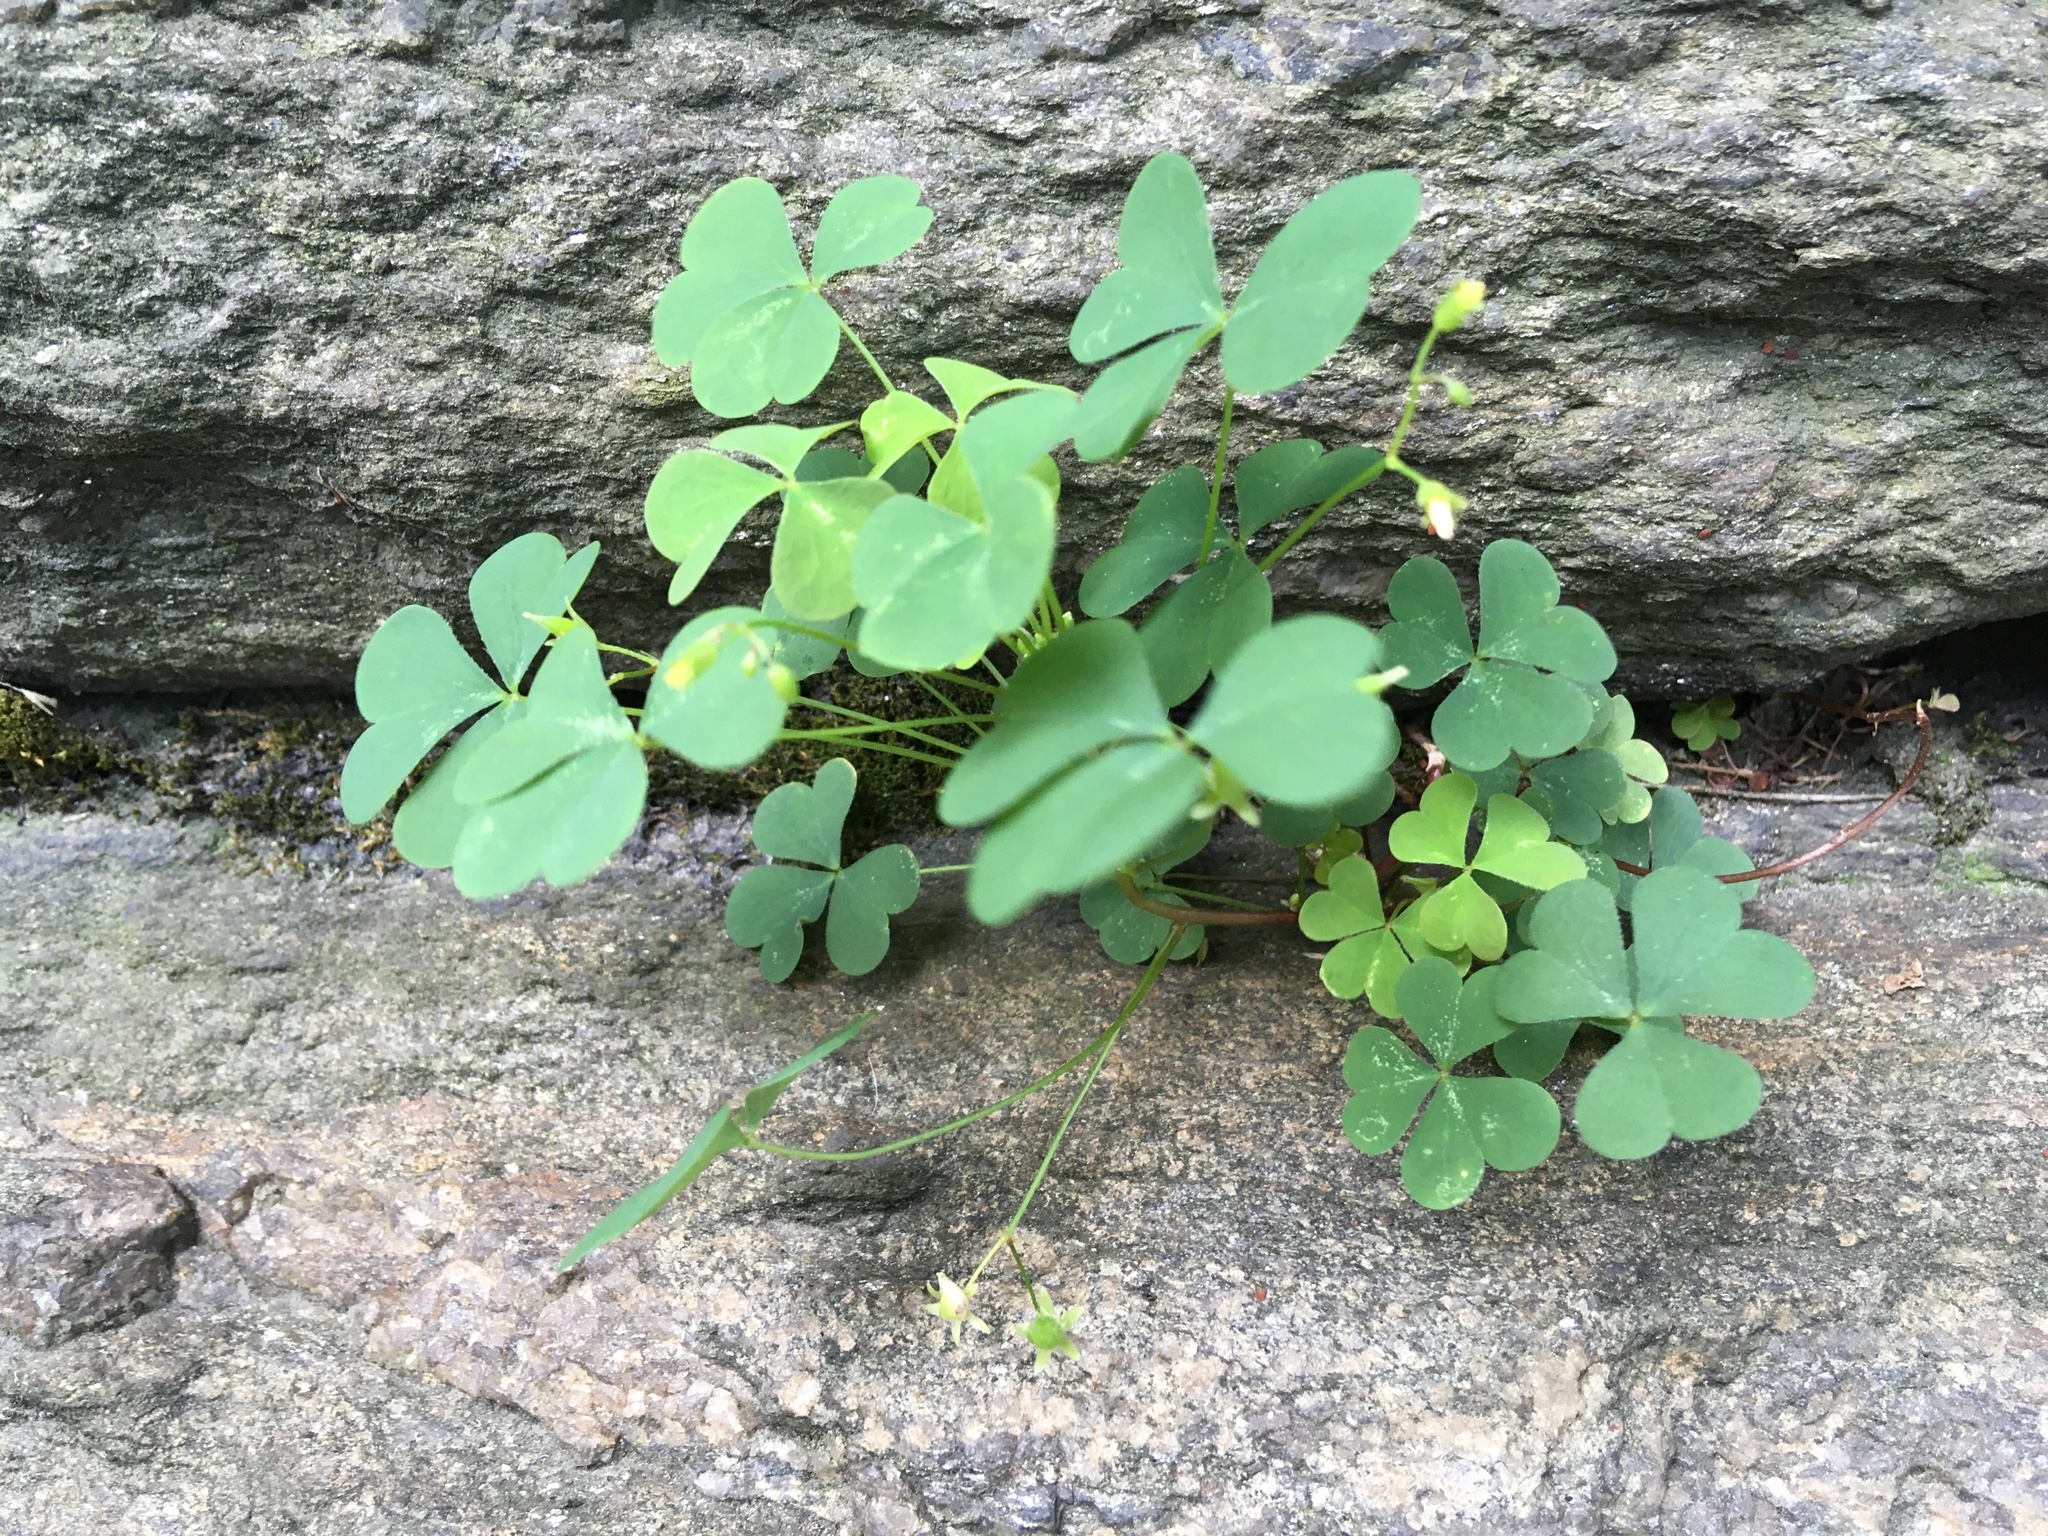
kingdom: Plantae
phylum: Tracheophyta
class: Magnoliopsida
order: Oxalidales
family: Oxalidaceae
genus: Oxalis
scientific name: Oxalis corniculata
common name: Procumbent yellow-sorrel
